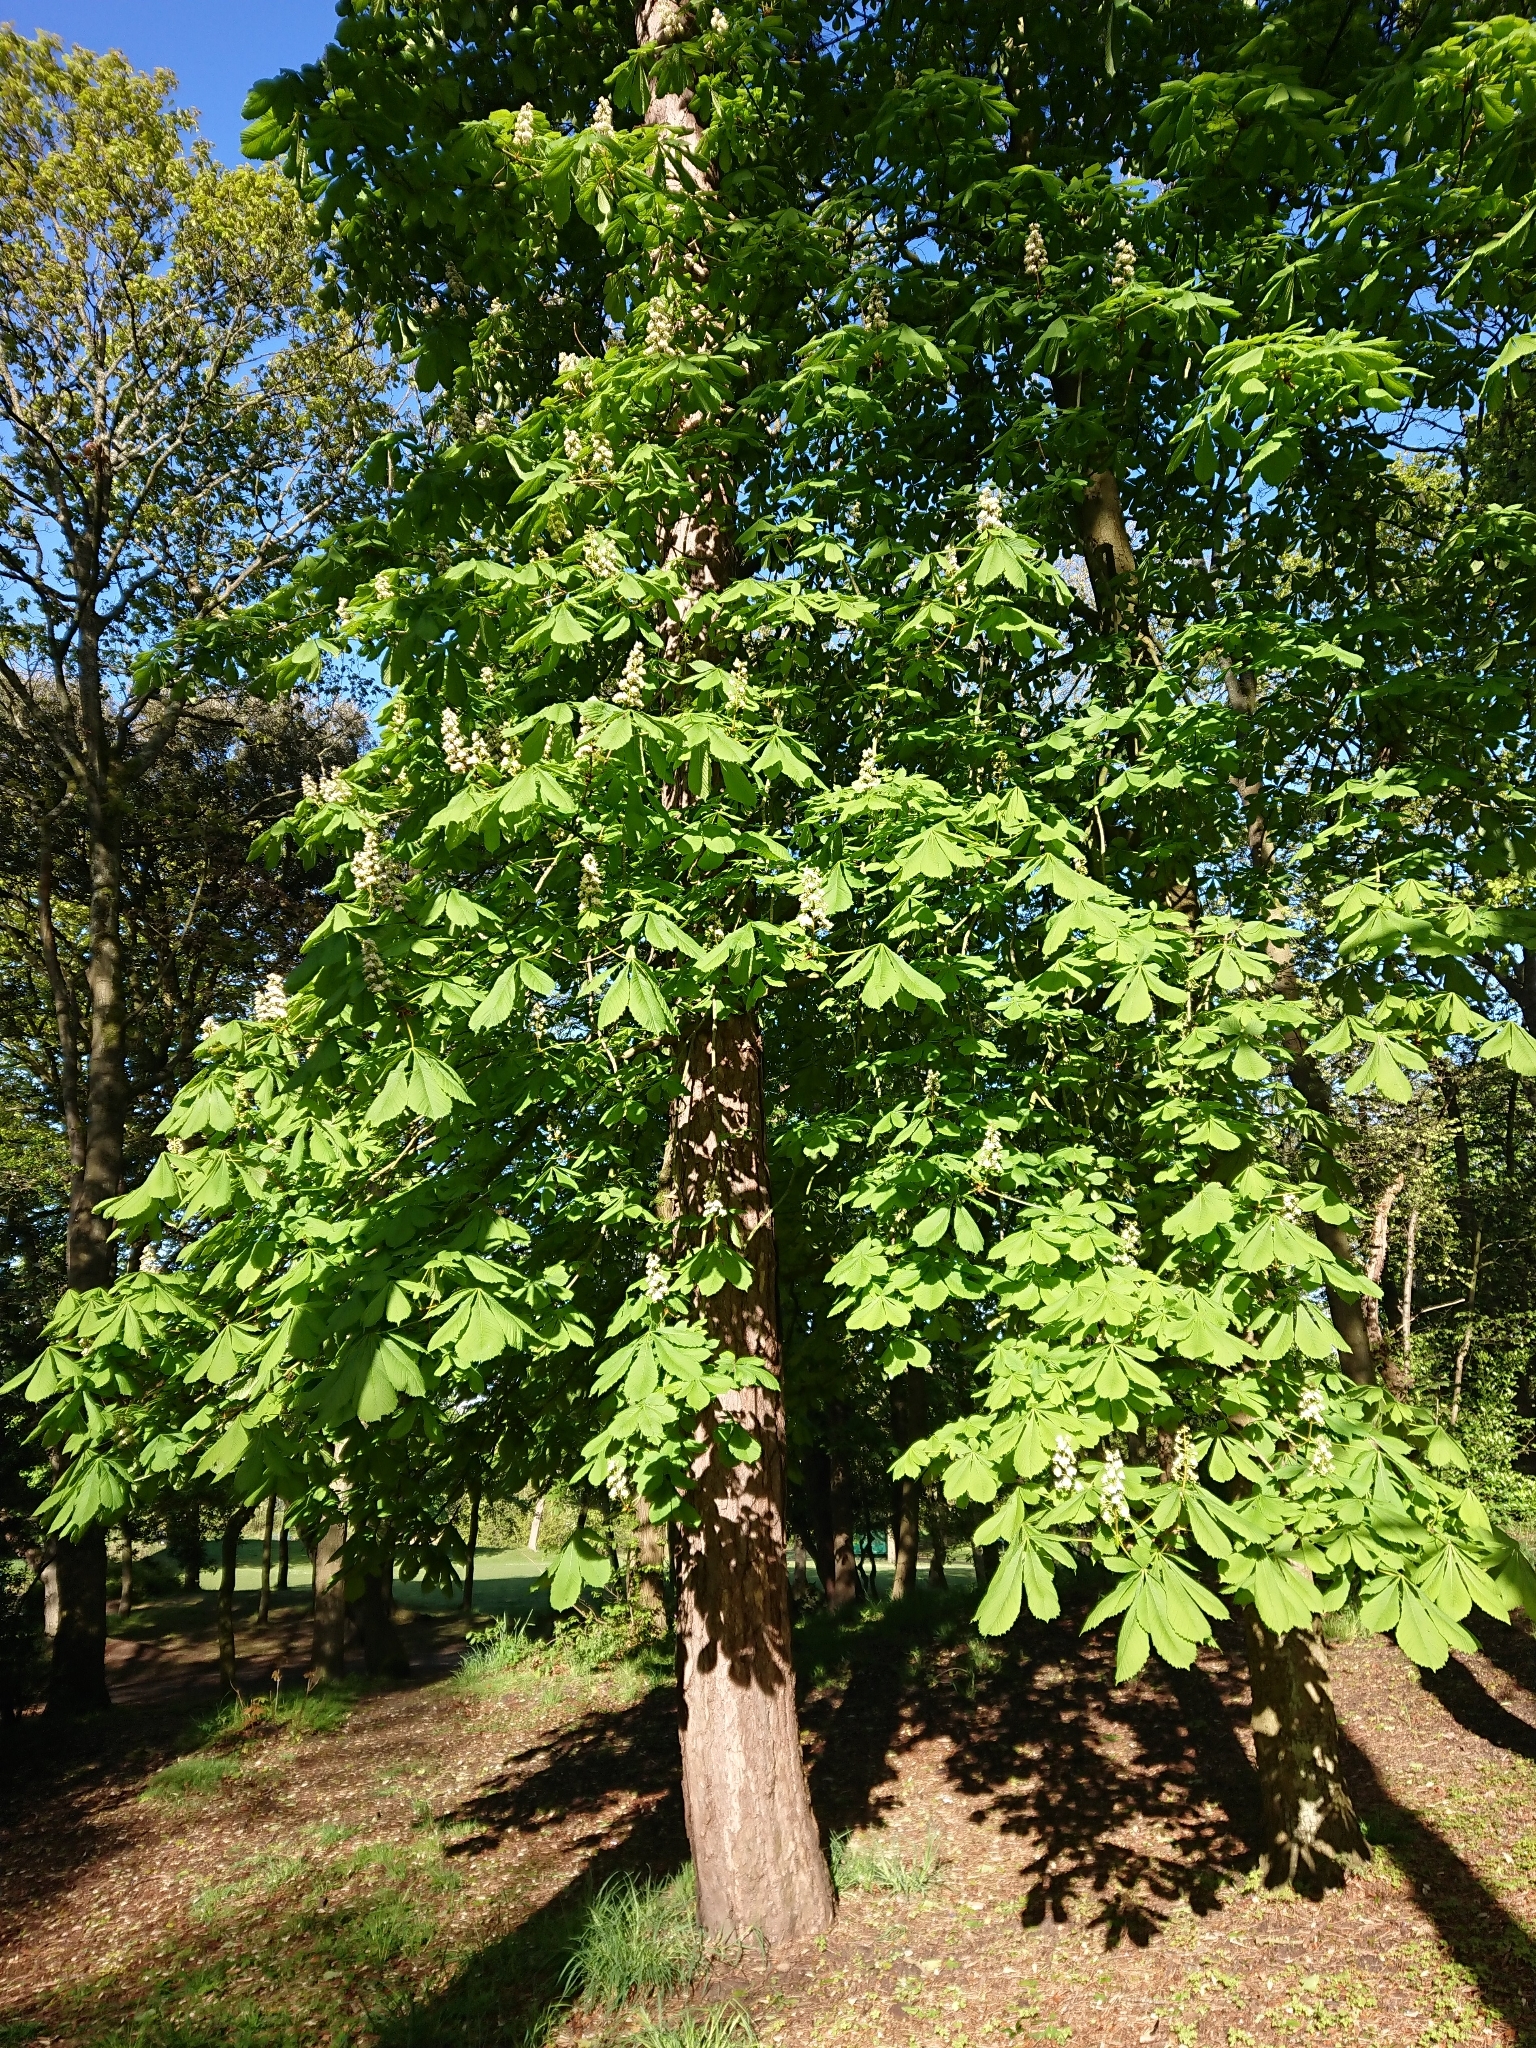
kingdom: Plantae
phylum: Tracheophyta
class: Magnoliopsida
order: Sapindales
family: Sapindaceae
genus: Aesculus
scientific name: Aesculus hippocastanum
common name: Horse-chestnut
